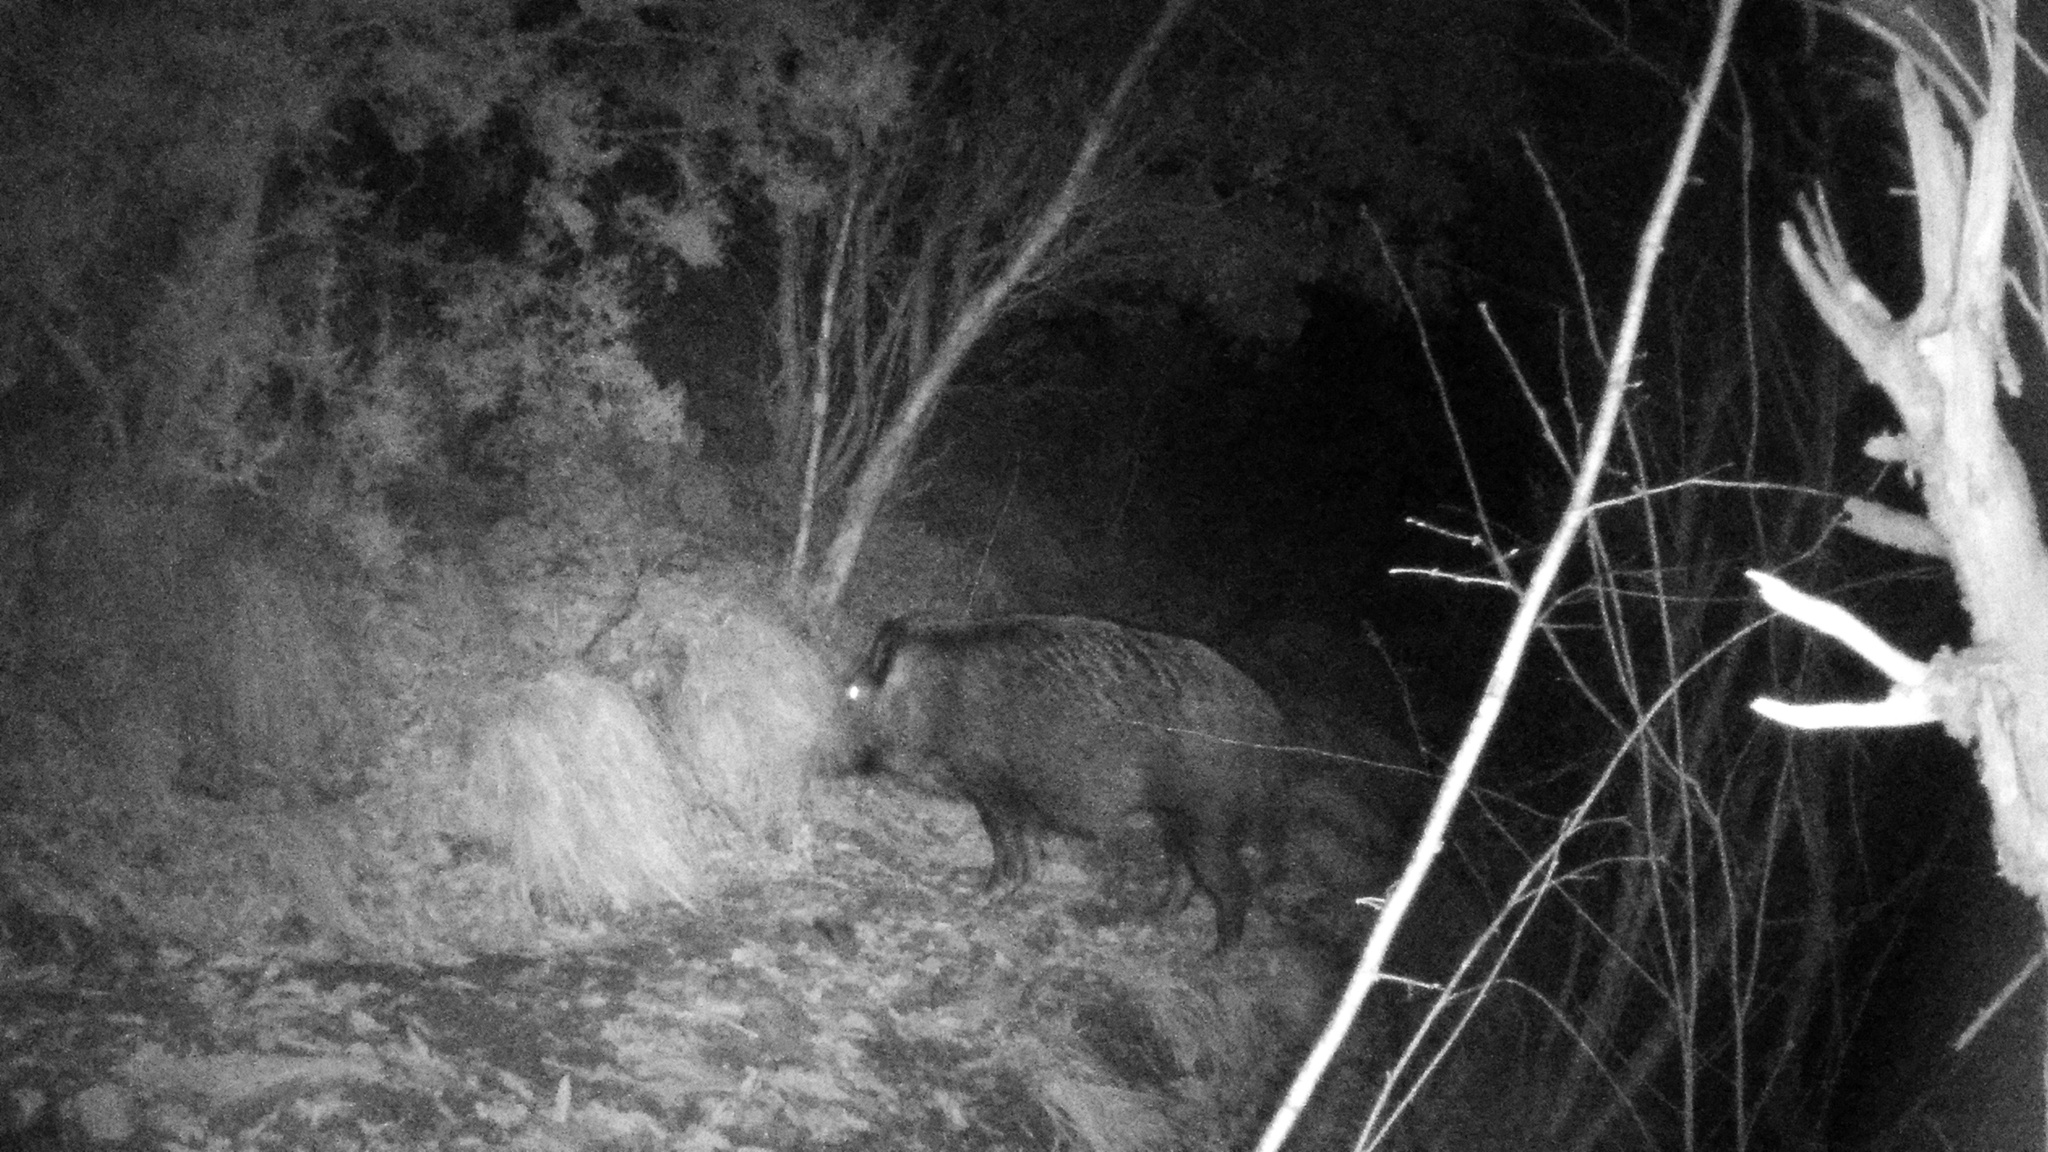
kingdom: Animalia
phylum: Chordata
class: Mammalia
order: Artiodactyla
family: Suidae
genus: Sus
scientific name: Sus scrofa
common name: Wild boar
